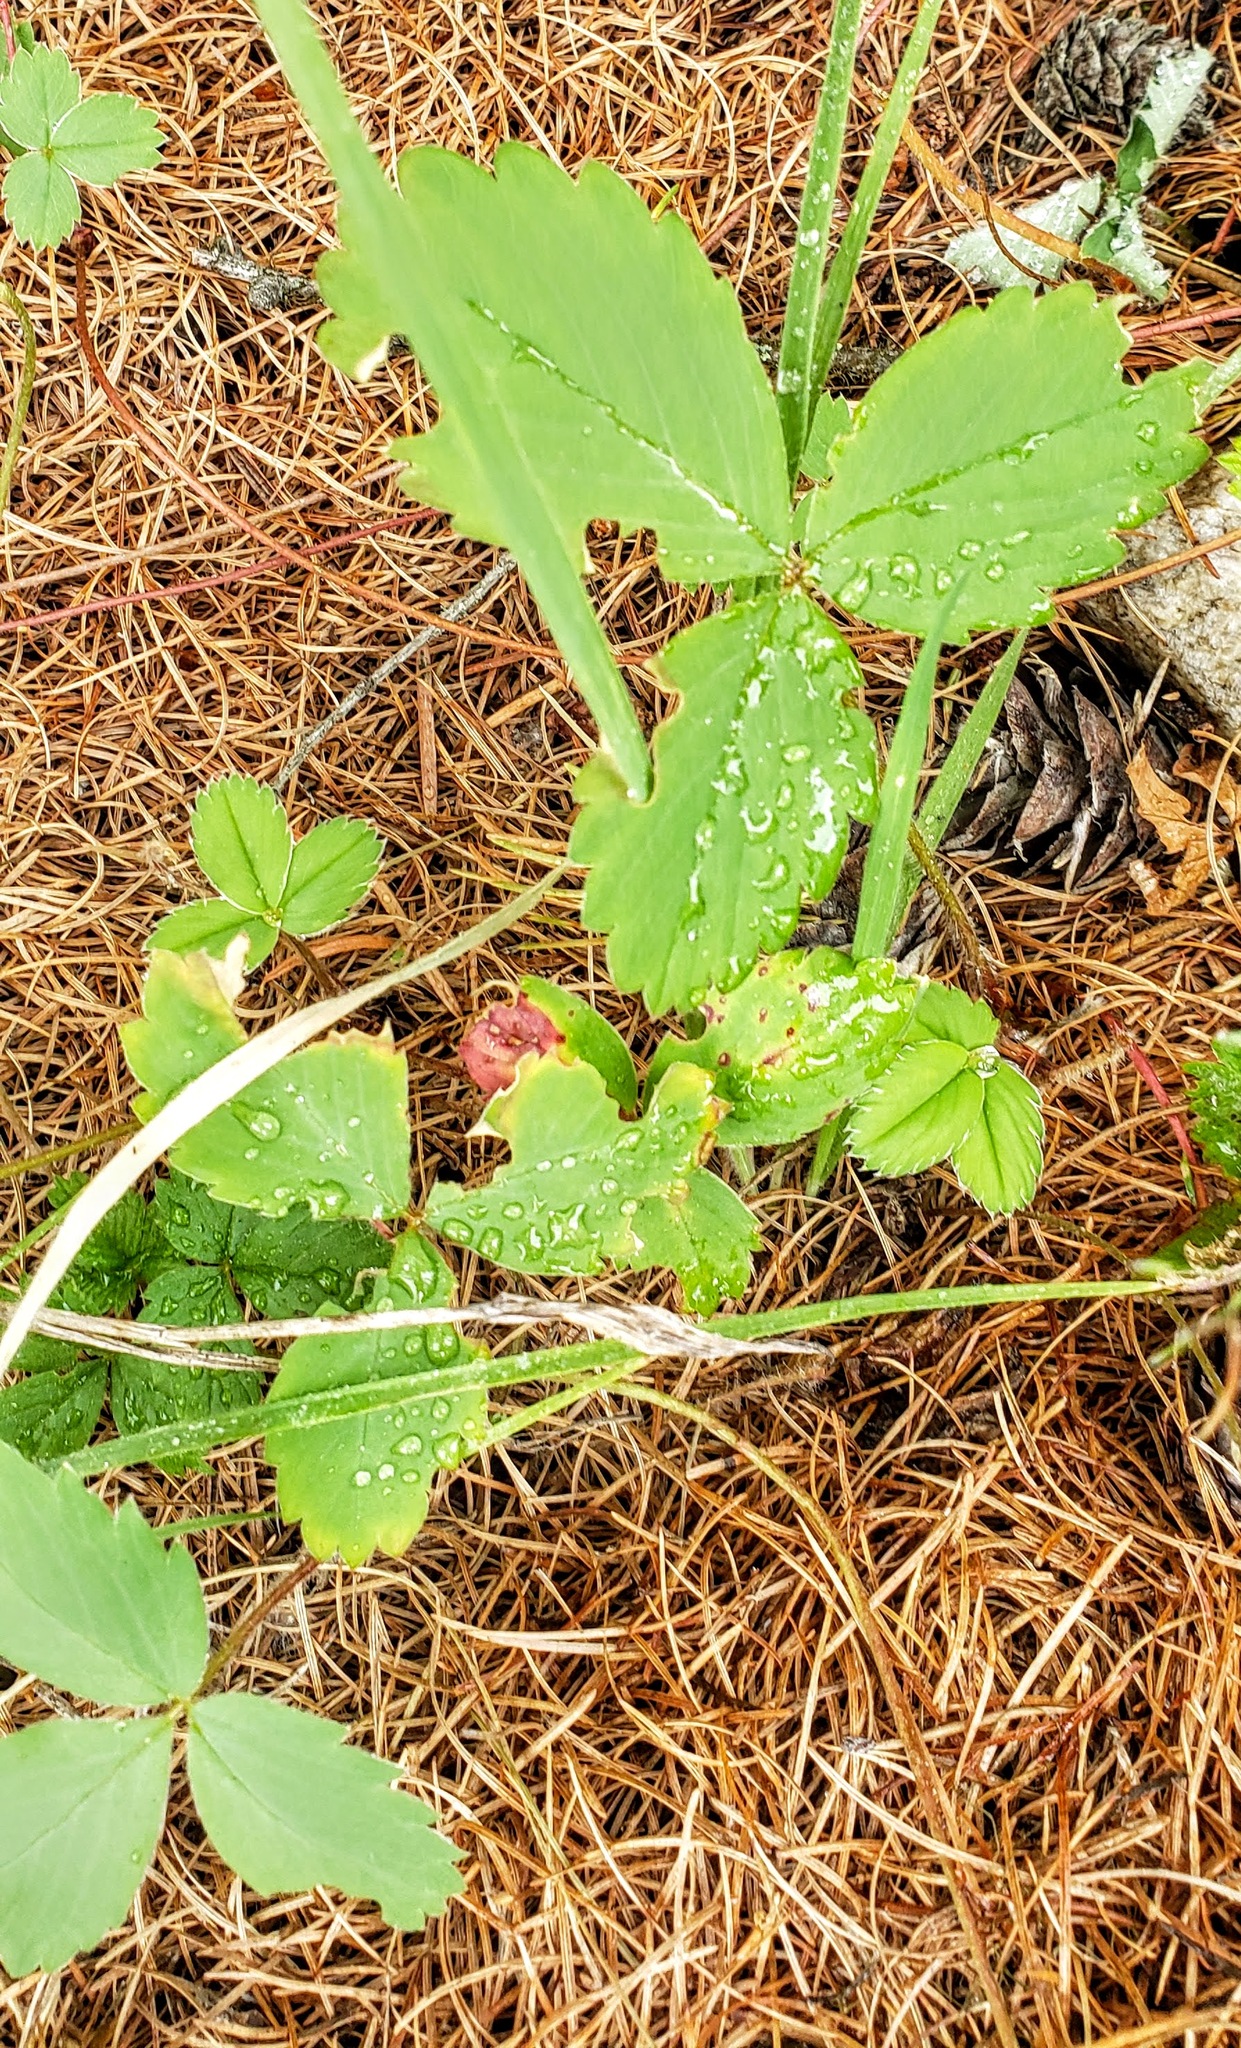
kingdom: Plantae
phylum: Tracheophyta
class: Magnoliopsida
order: Rosales
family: Rosaceae
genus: Fragaria
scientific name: Fragaria virginiana
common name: Thickleaved wild strawberry
